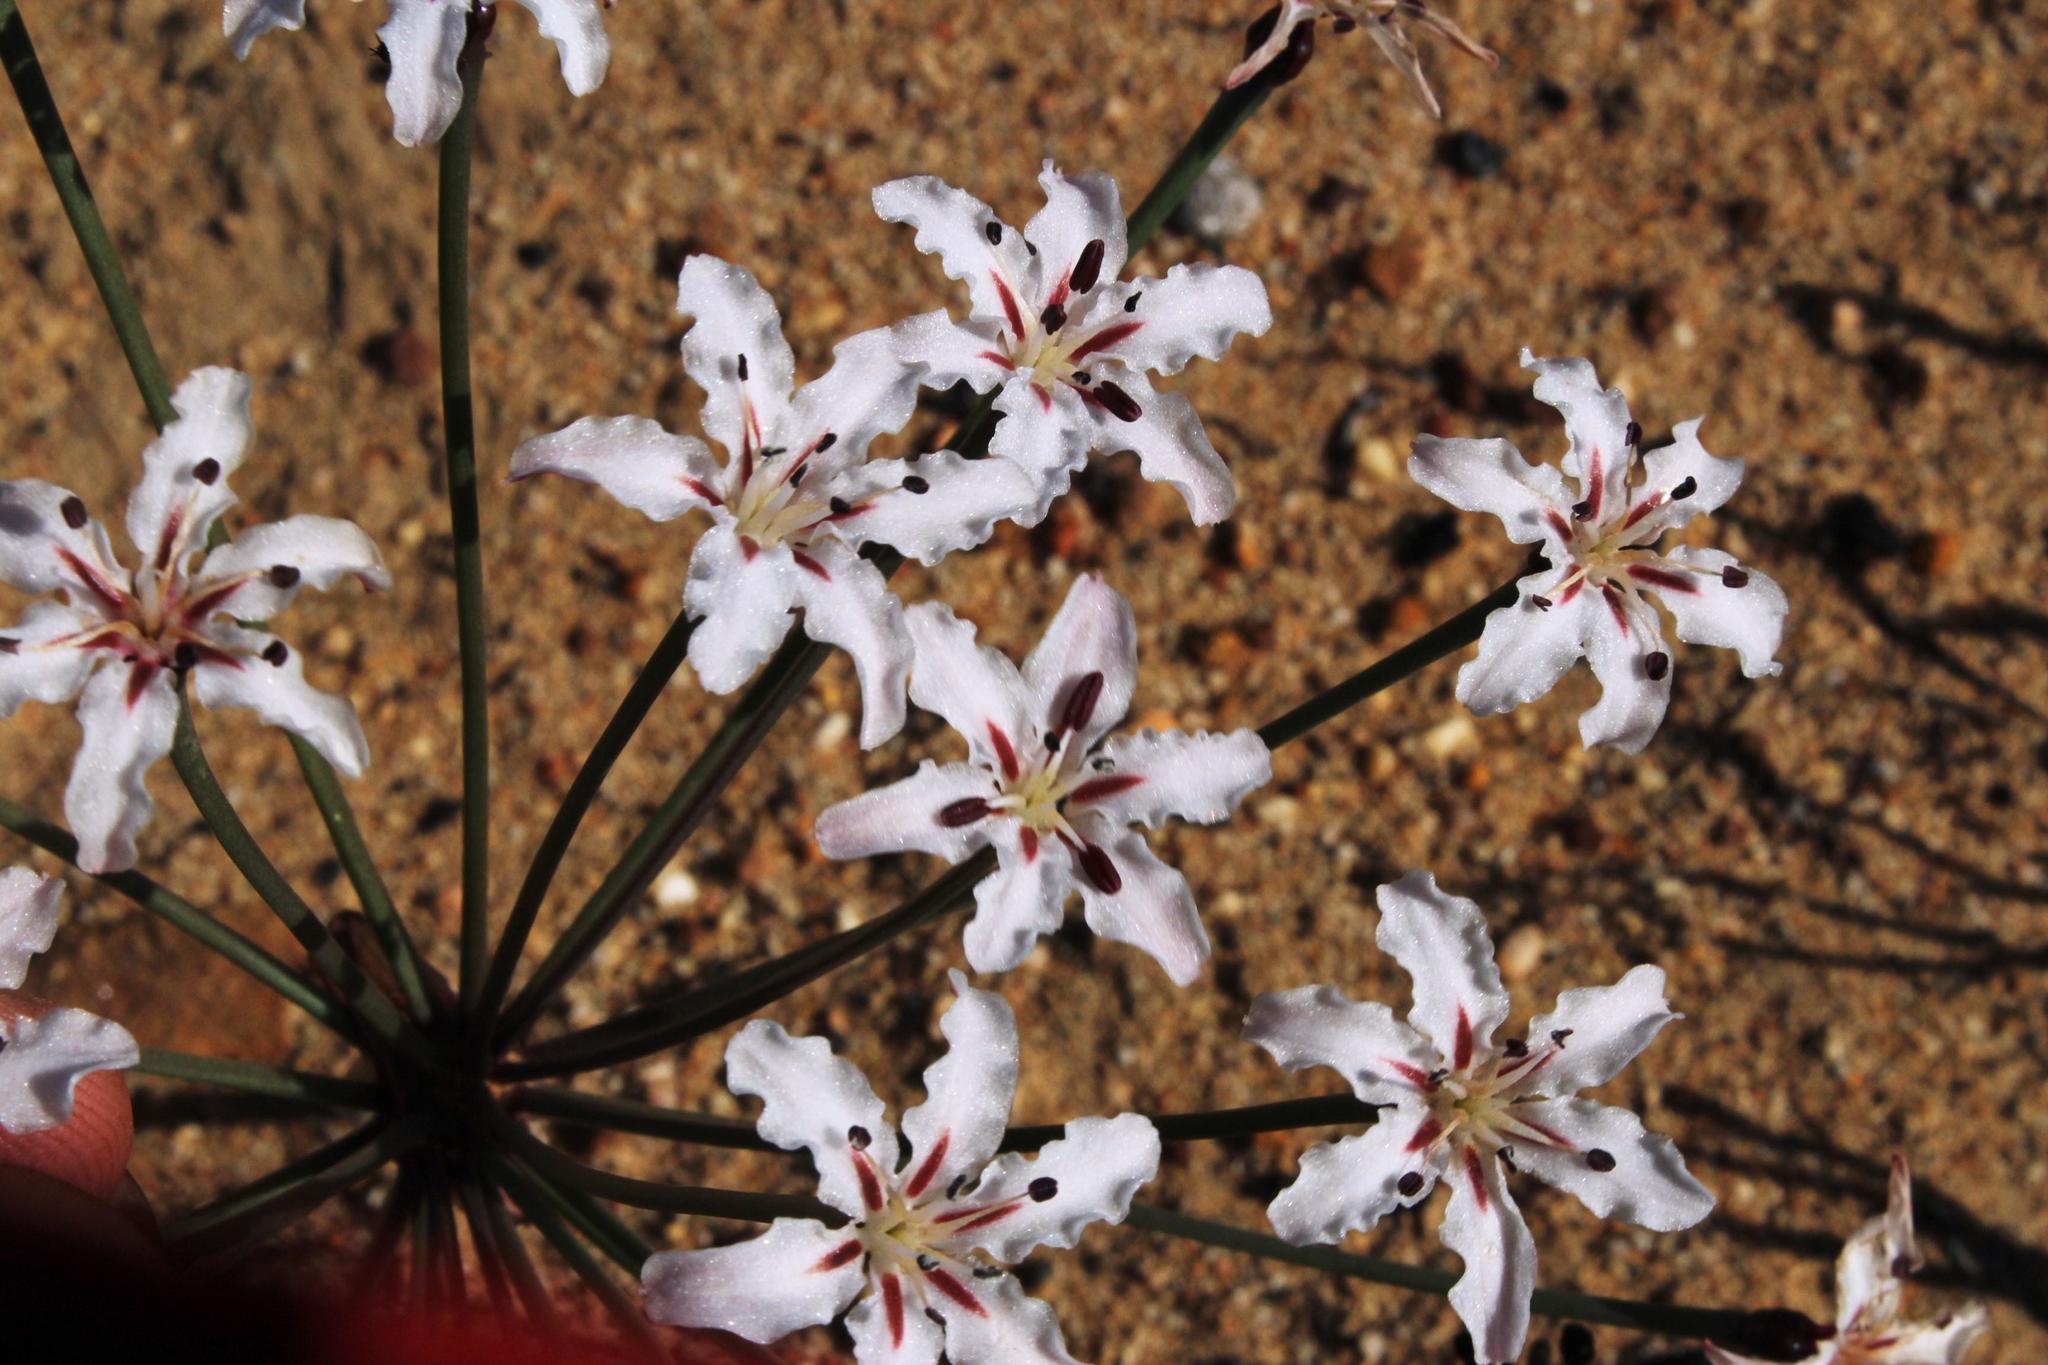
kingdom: Plantae
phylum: Tracheophyta
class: Liliopsida
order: Asparagales
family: Amaryllidaceae
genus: Hessea
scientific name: Hessea monticola
